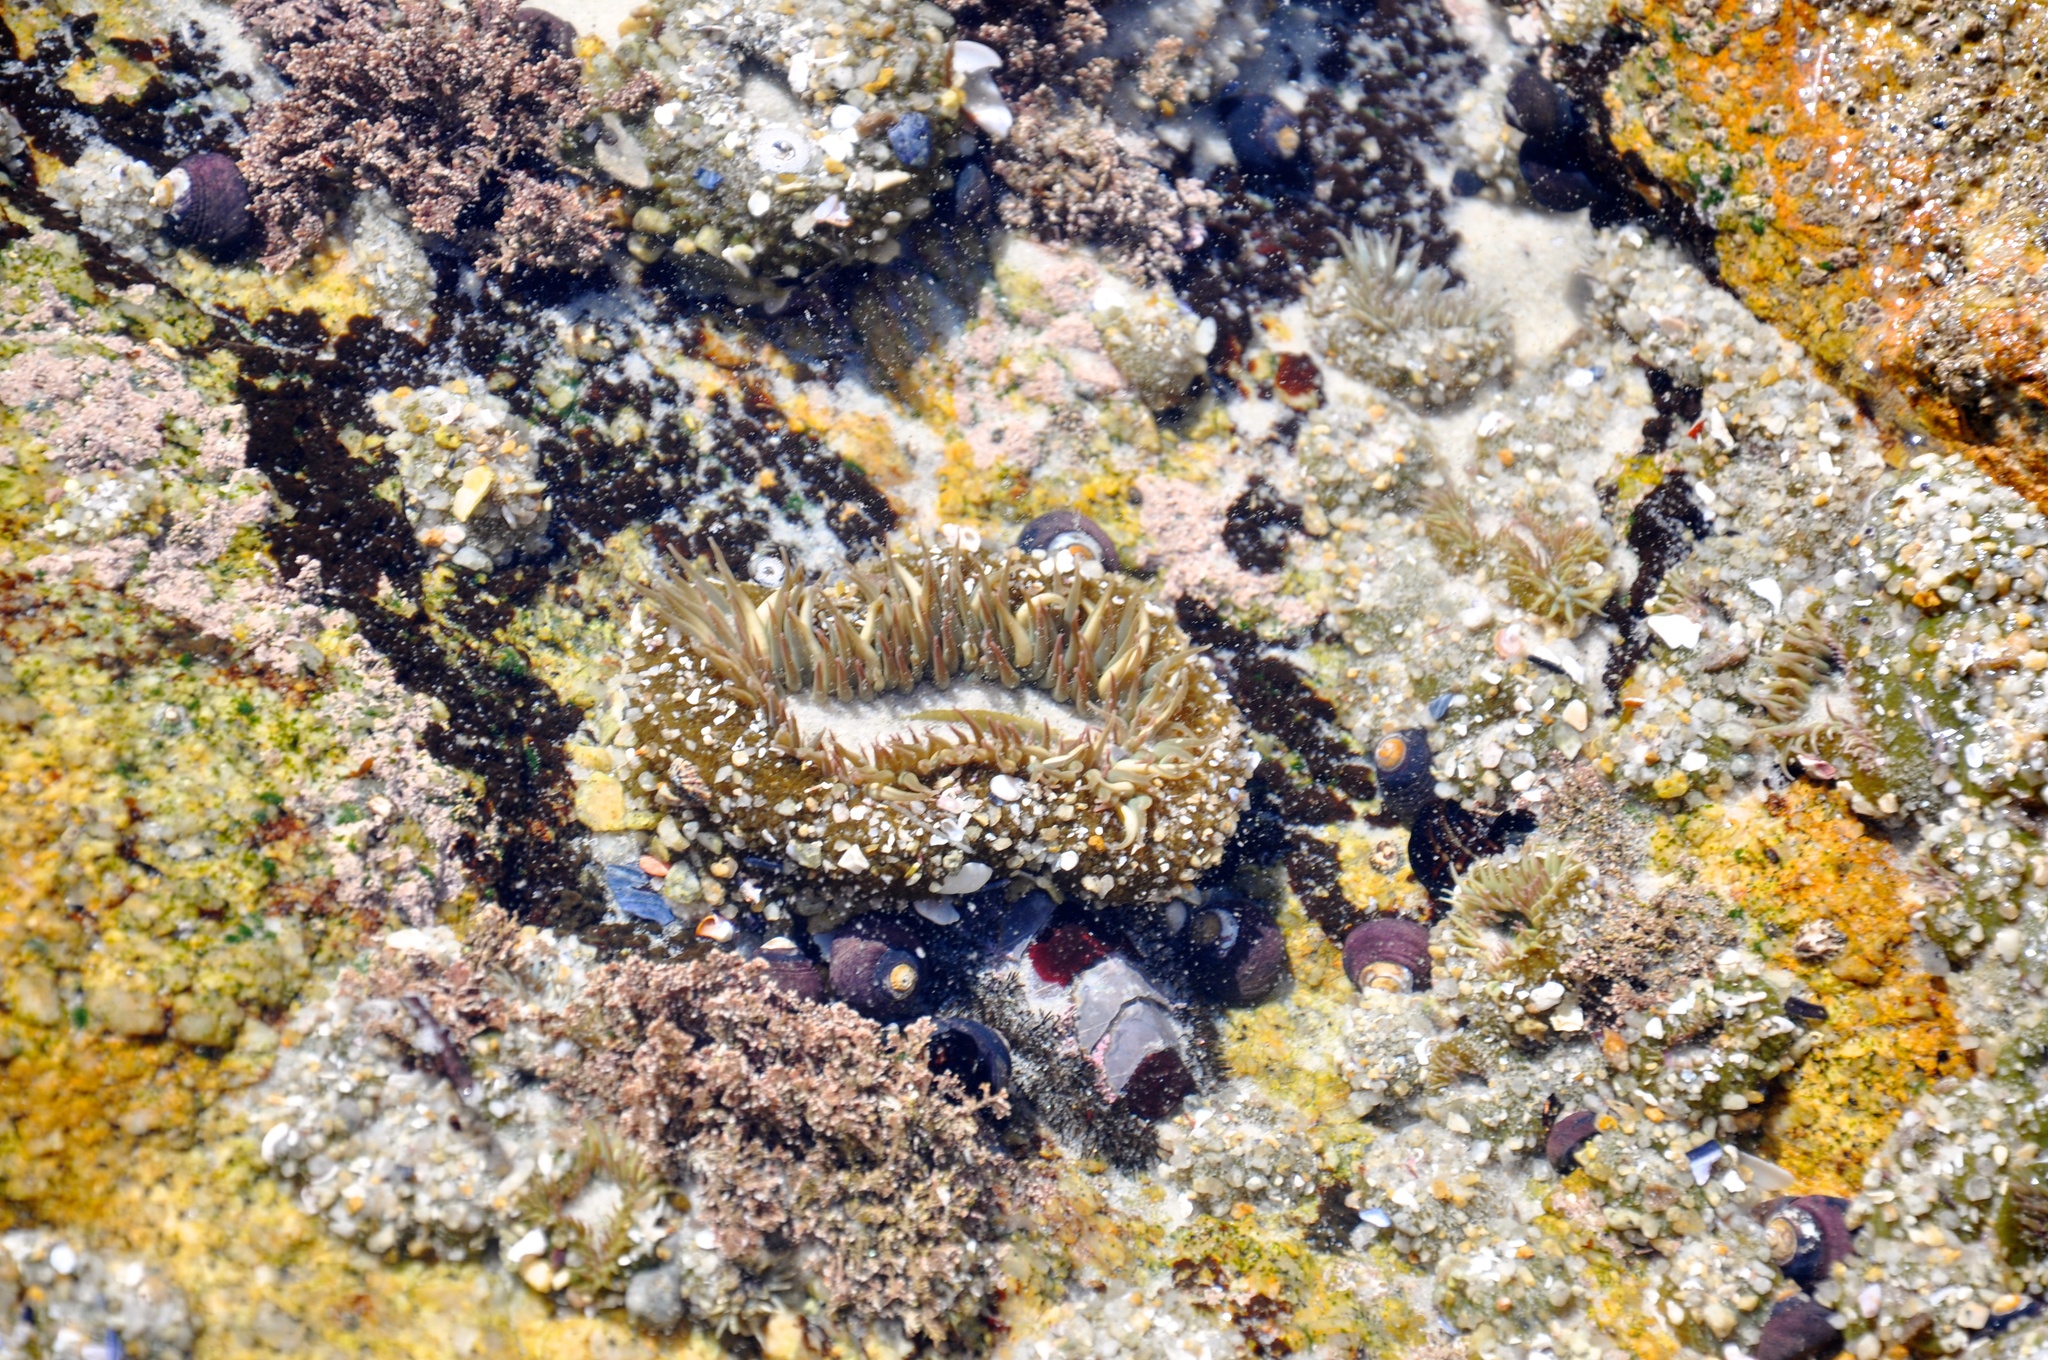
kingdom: Animalia
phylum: Cnidaria
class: Anthozoa
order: Actiniaria
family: Actiniidae
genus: Anthopleura
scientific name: Anthopleura sola
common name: Sun anemone
